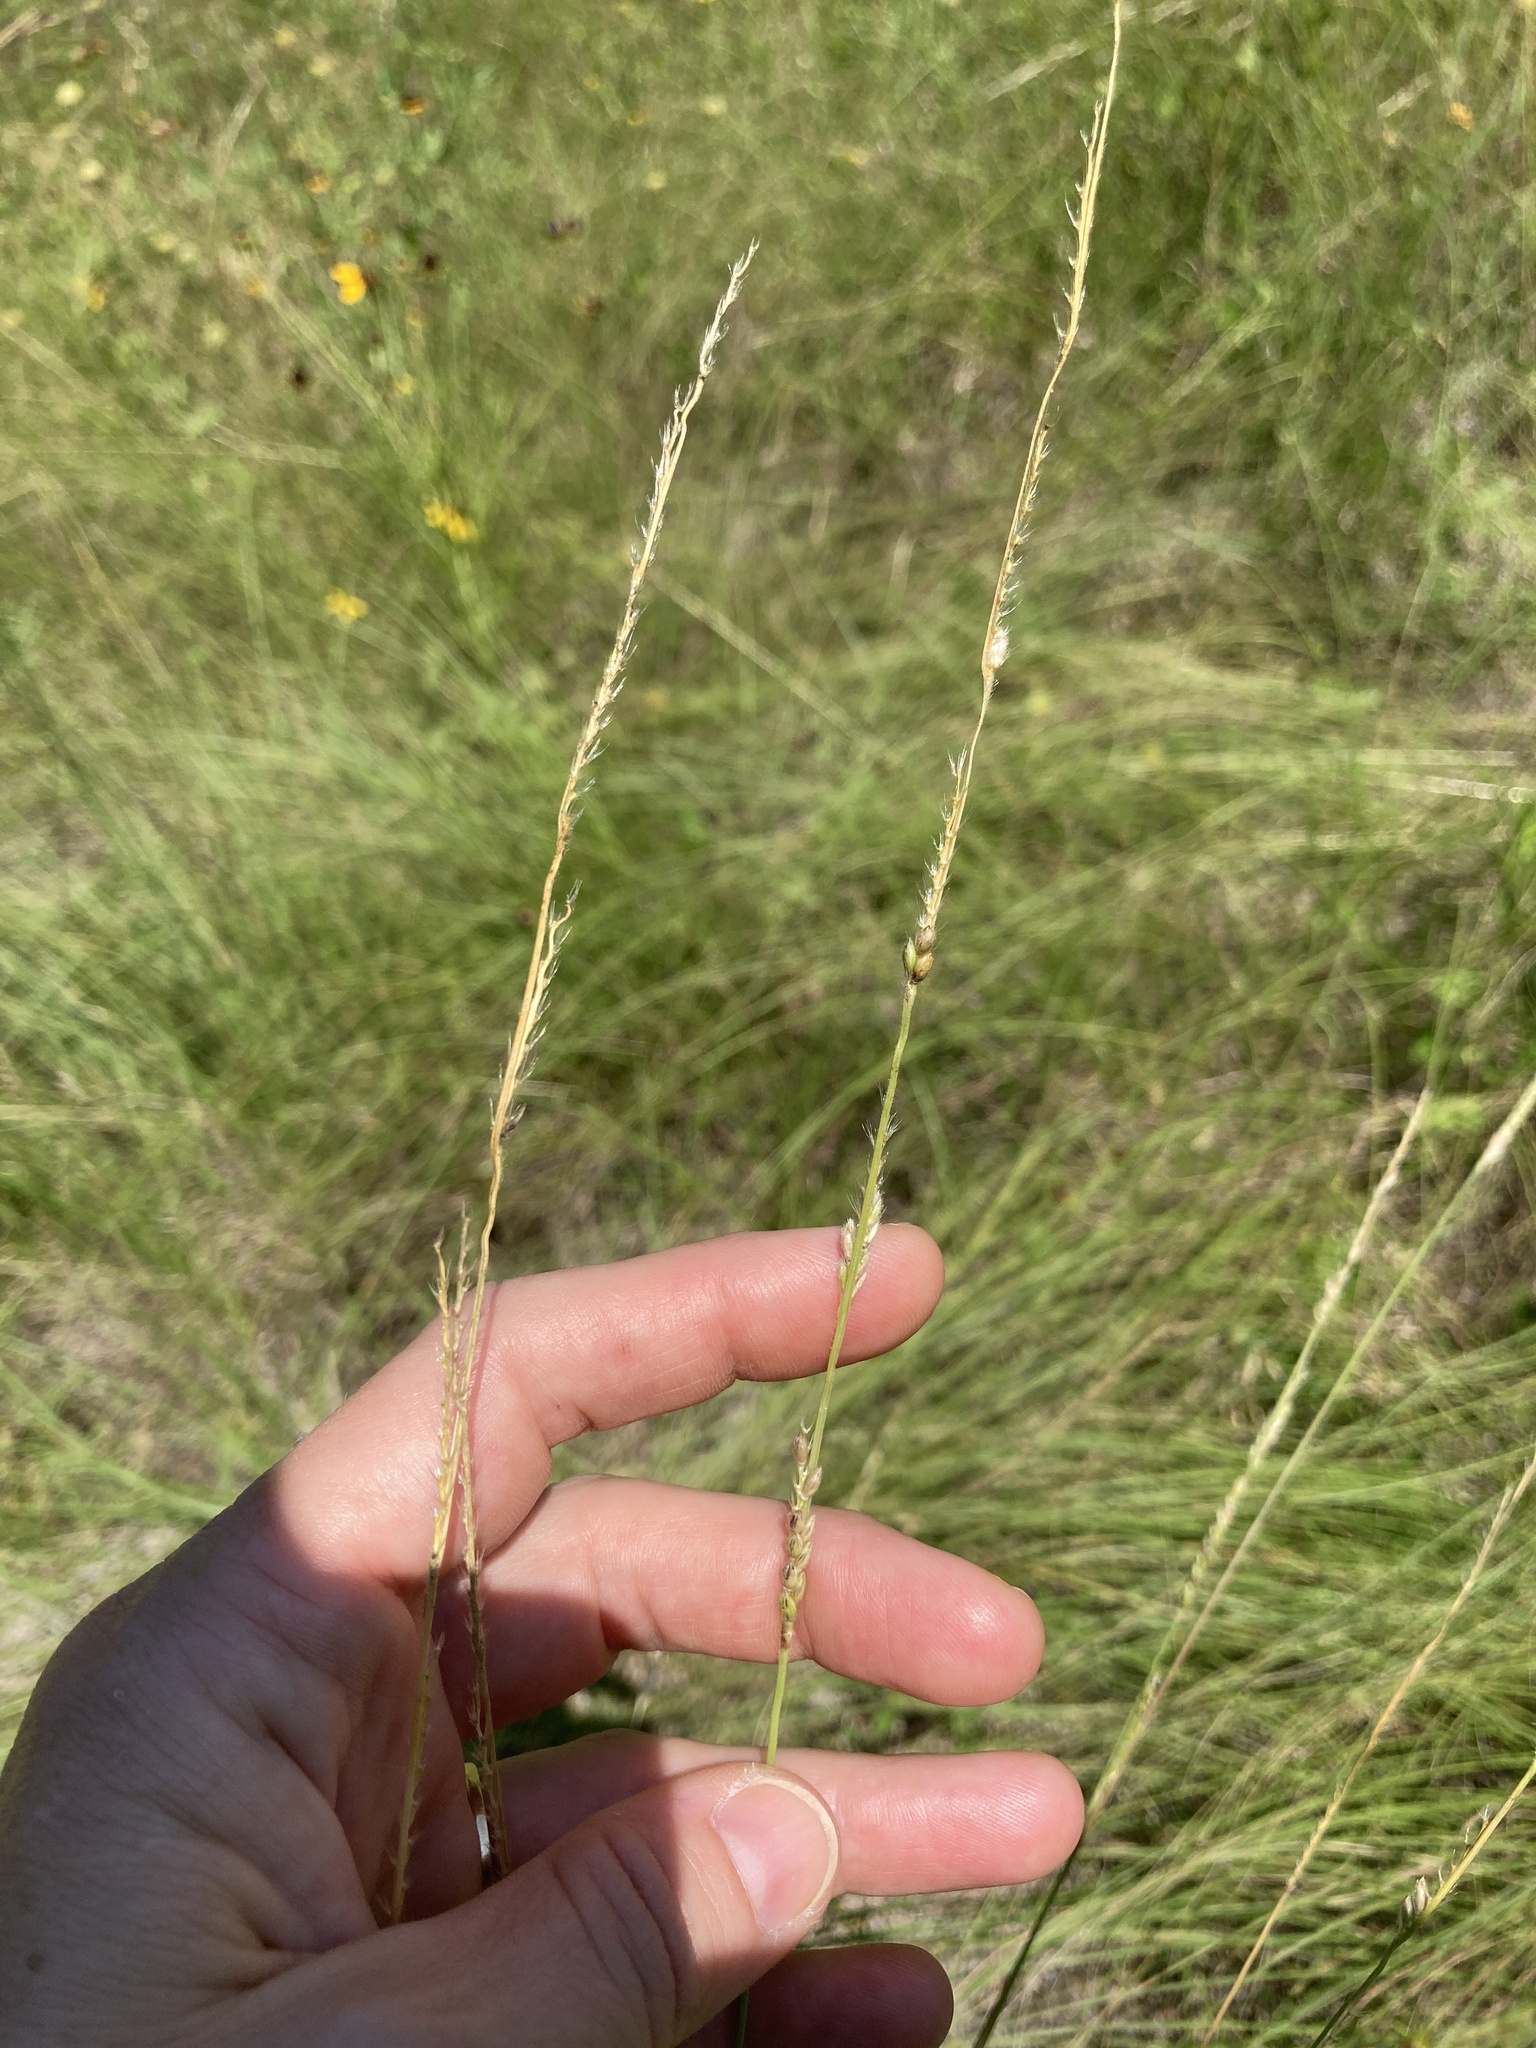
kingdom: Plantae
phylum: Tracheophyta
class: Liliopsida
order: Poales
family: Poaceae
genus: Eriochloa
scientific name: Eriochloa sericea
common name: Texas cup grass
